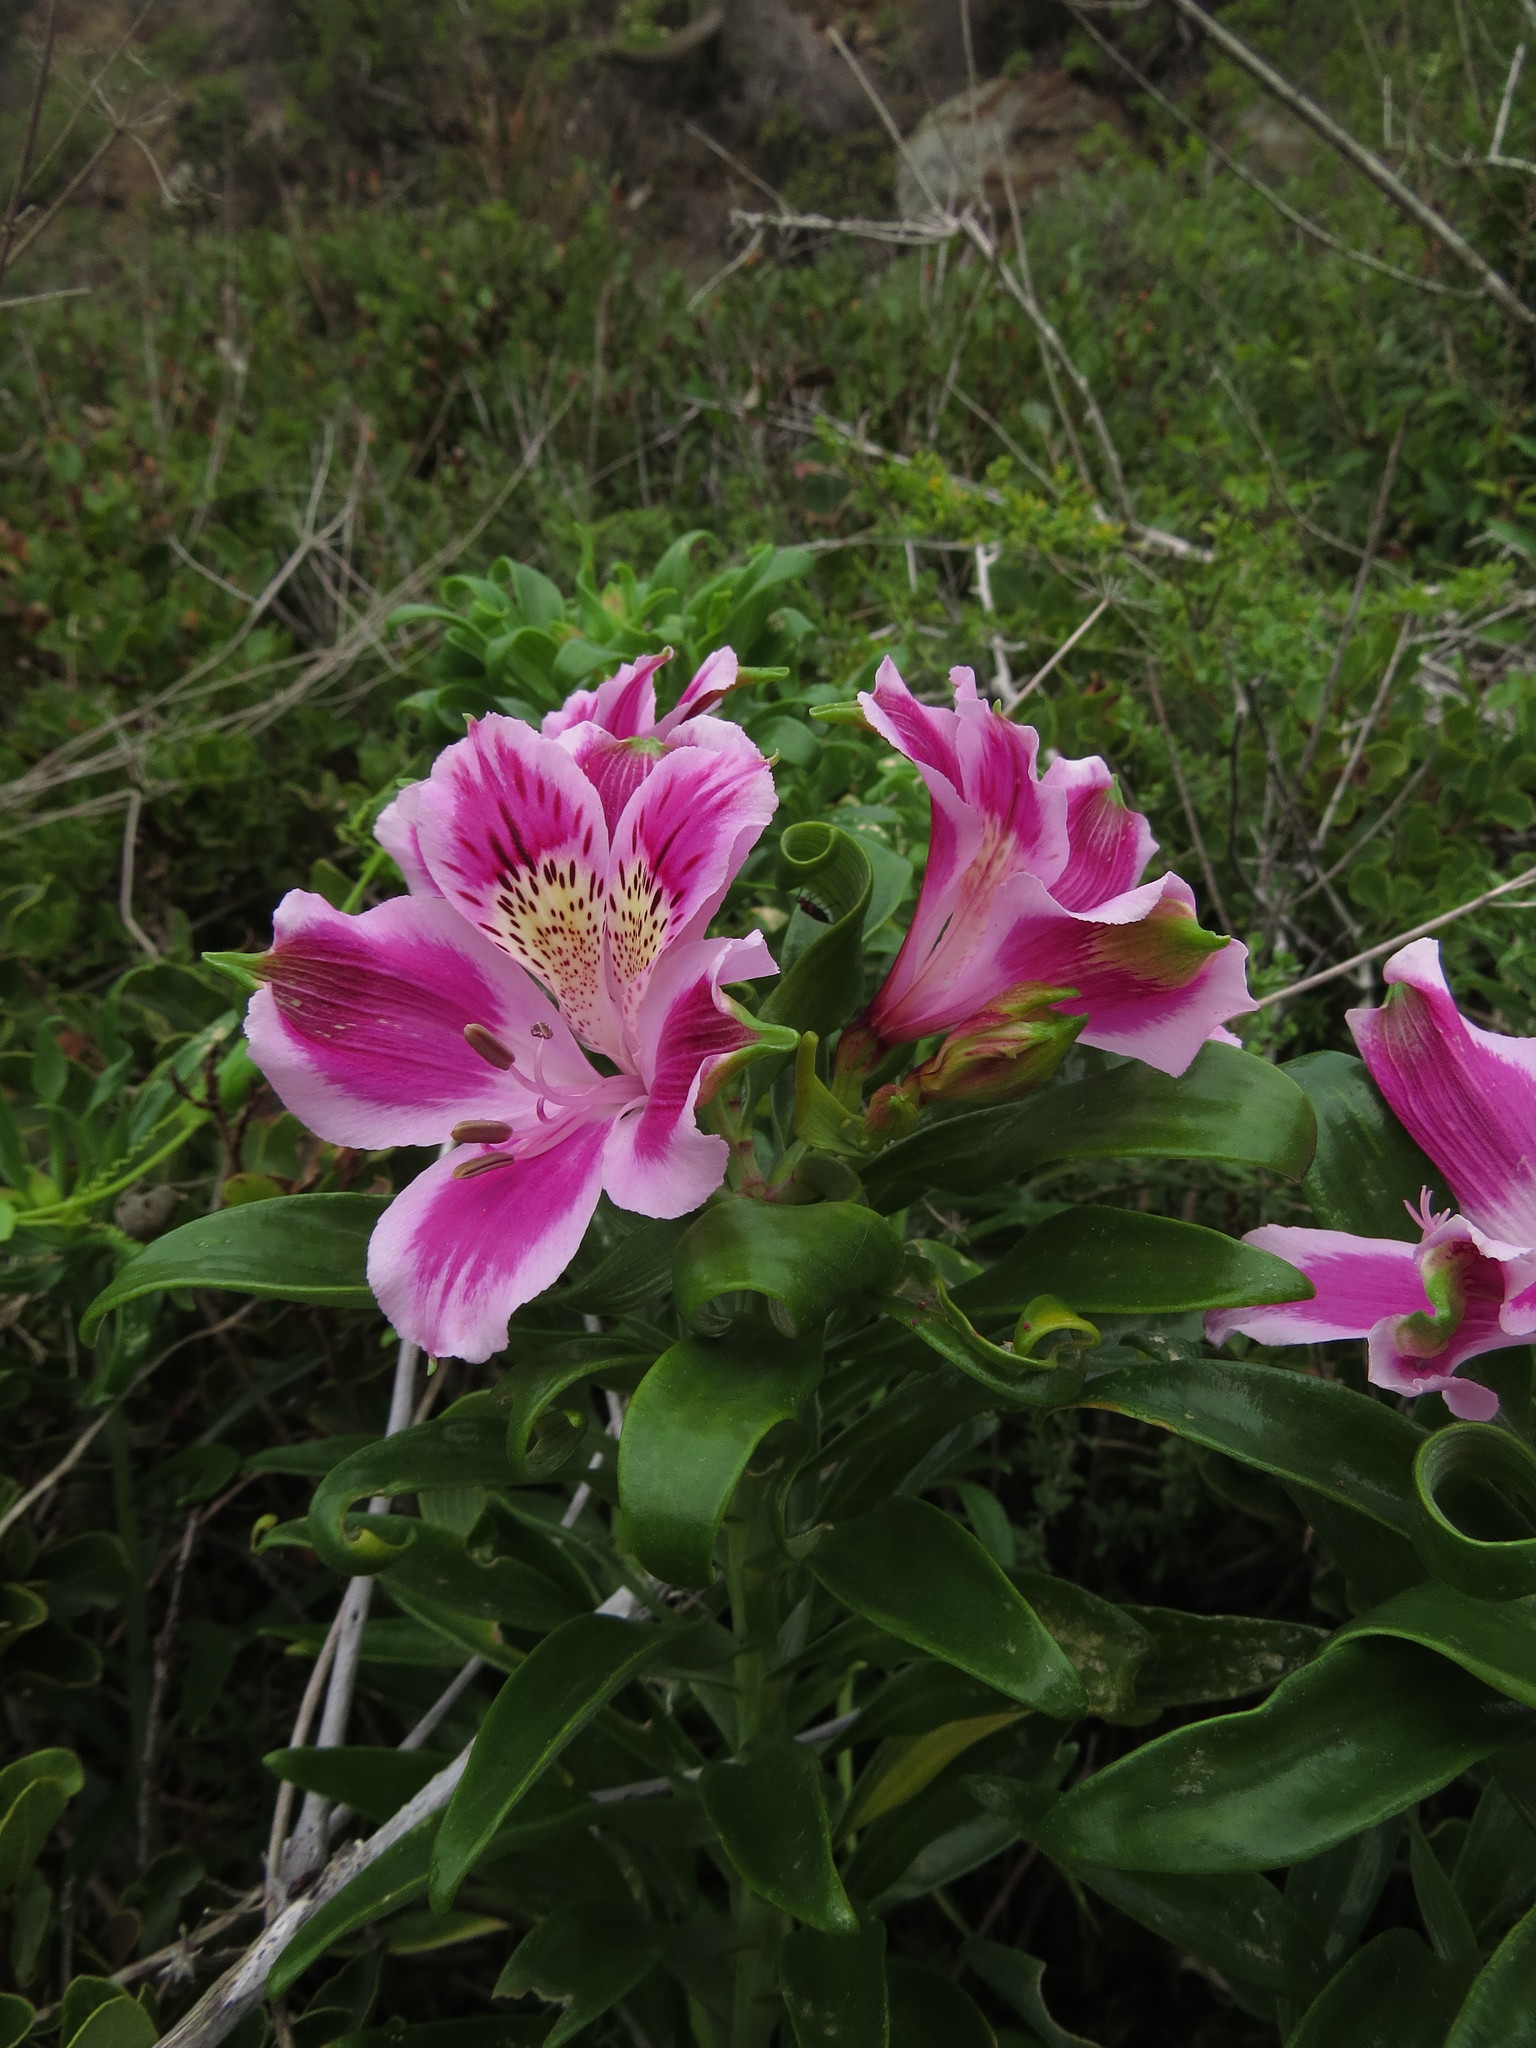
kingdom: Plantae
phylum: Tracheophyta
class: Liliopsida
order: Liliales
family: Alstroemeriaceae
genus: Alstroemeria
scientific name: Alstroemeria pelegrina
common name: Peruvian-lily
